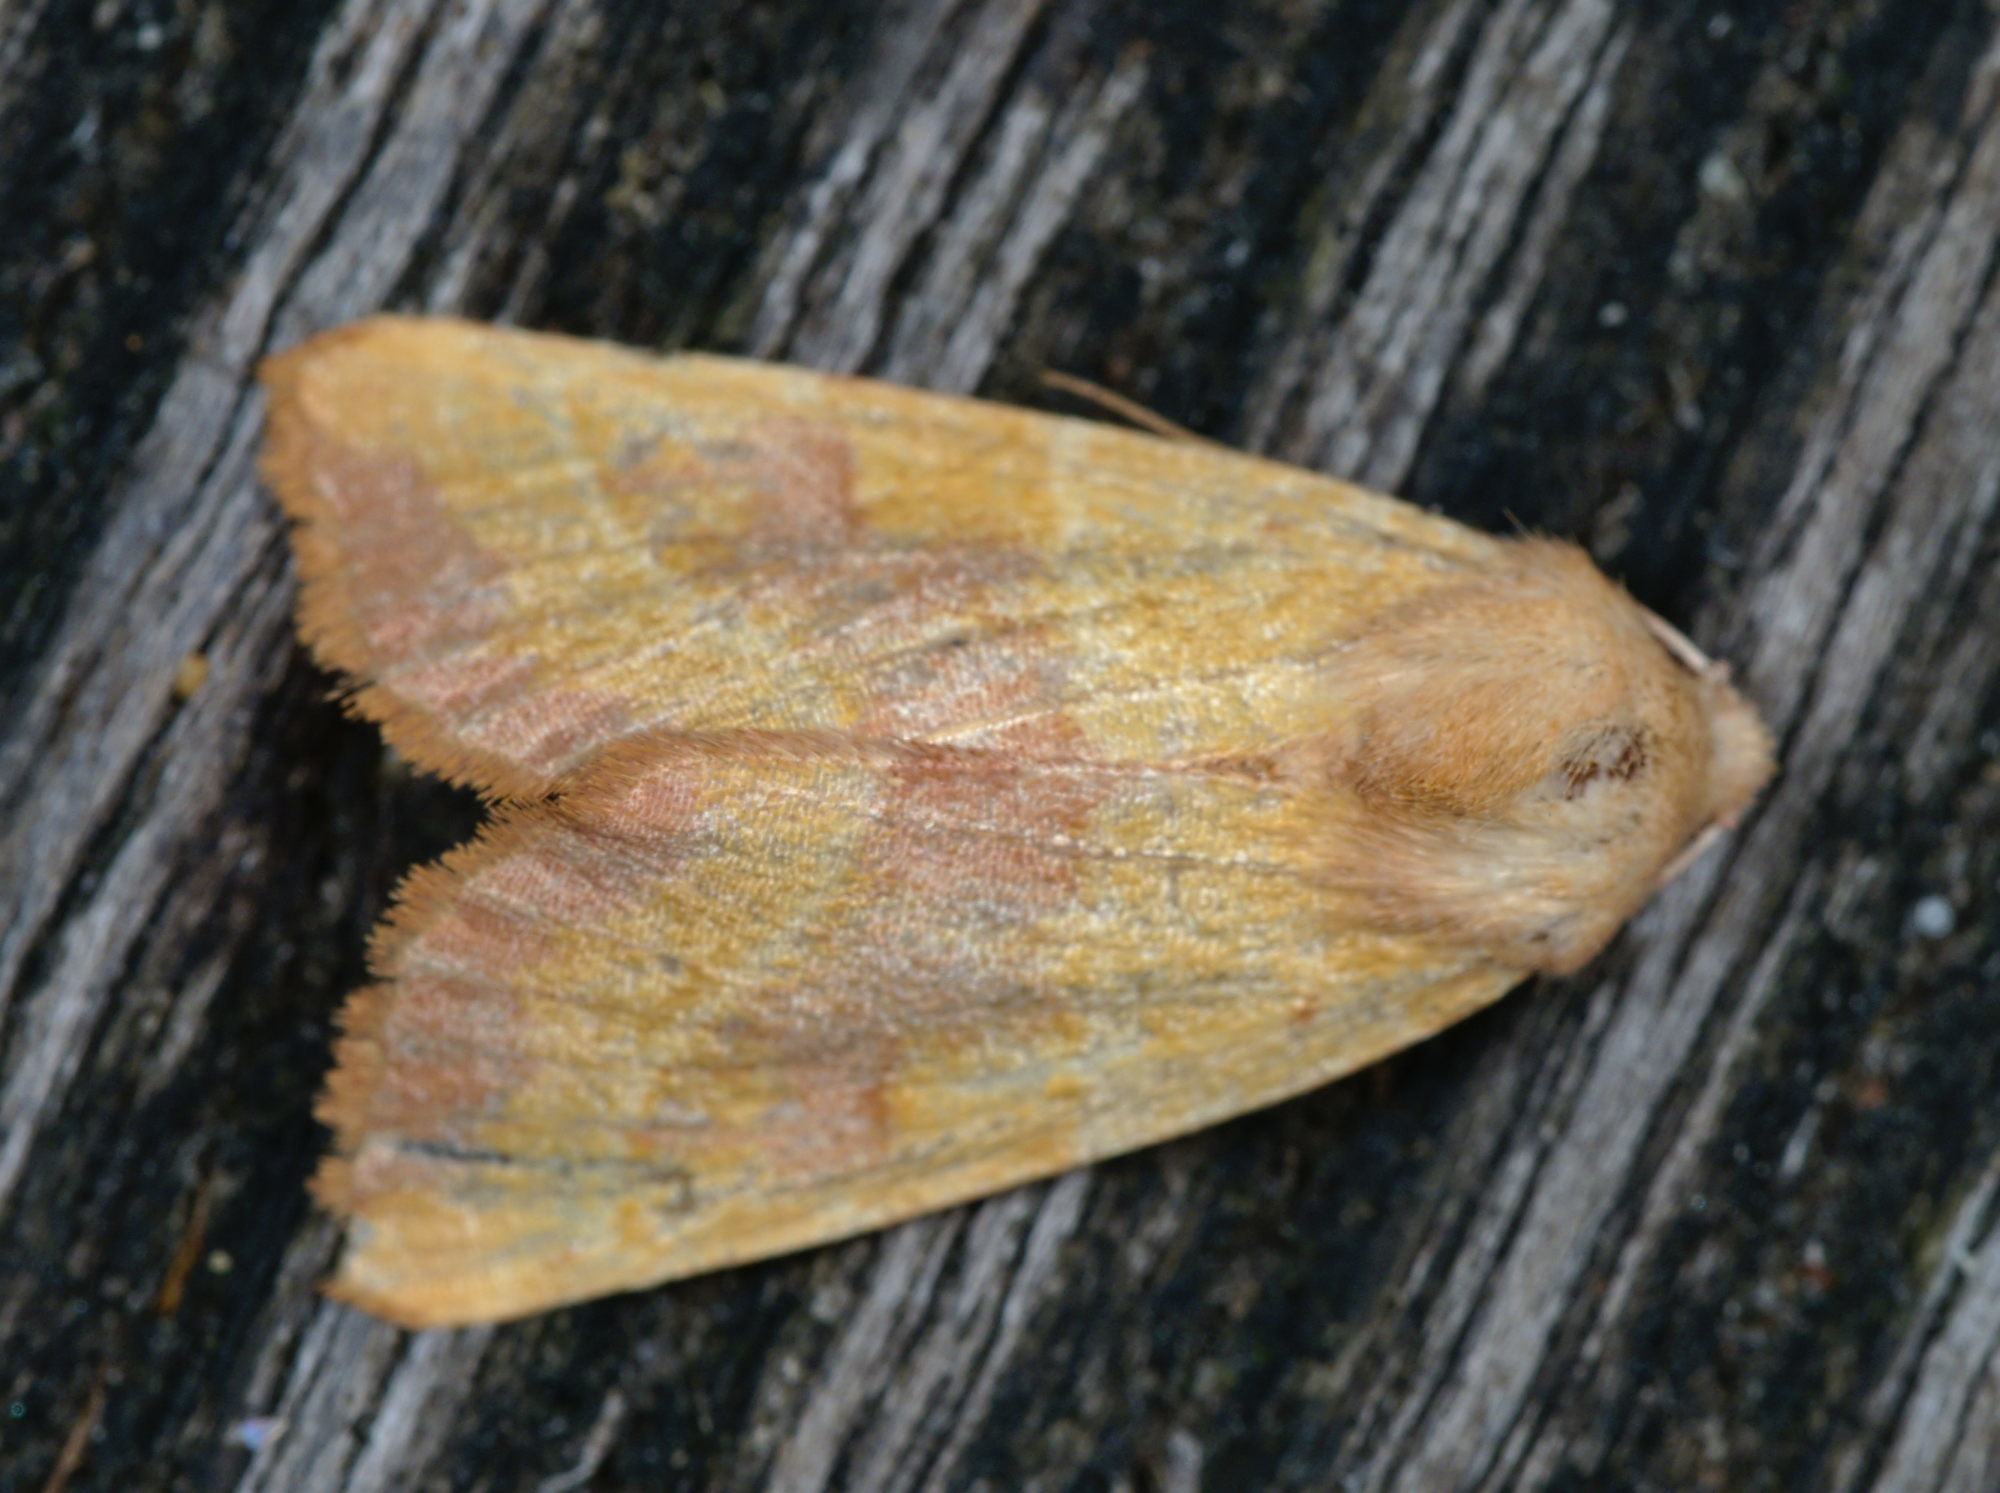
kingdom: Animalia
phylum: Arthropoda
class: Insecta
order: Lepidoptera
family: Noctuidae
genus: Atethmia
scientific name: Atethmia centrago
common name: Centre-barred sallow
